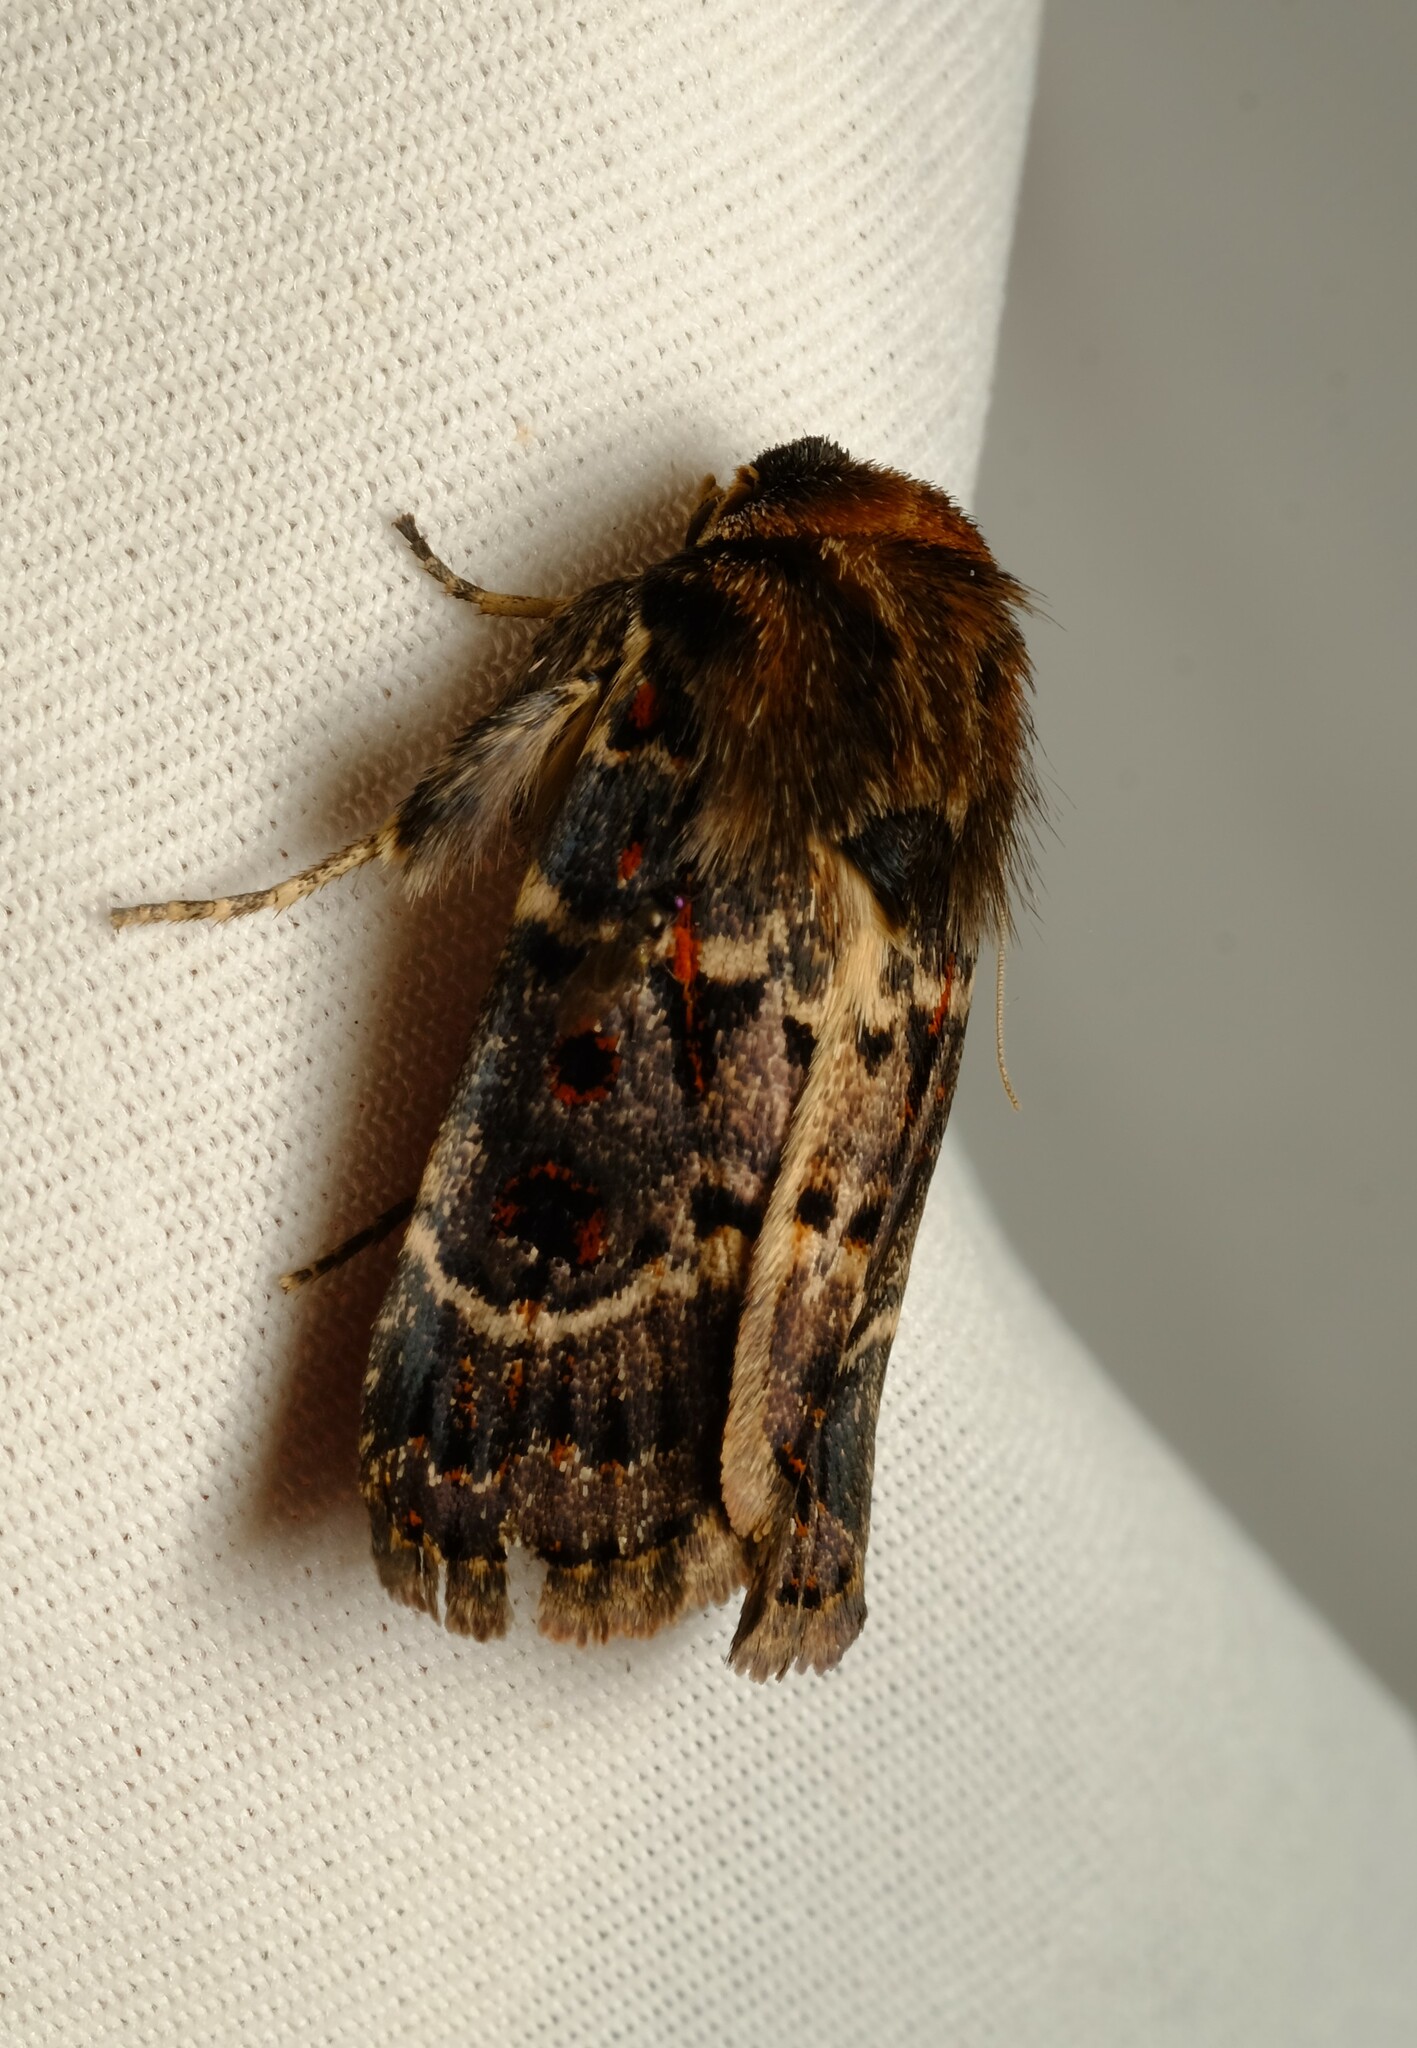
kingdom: Animalia
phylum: Arthropoda
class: Insecta
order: Lepidoptera
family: Noctuidae
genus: Proteuxoa
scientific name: Proteuxoa sanguinipuncta
